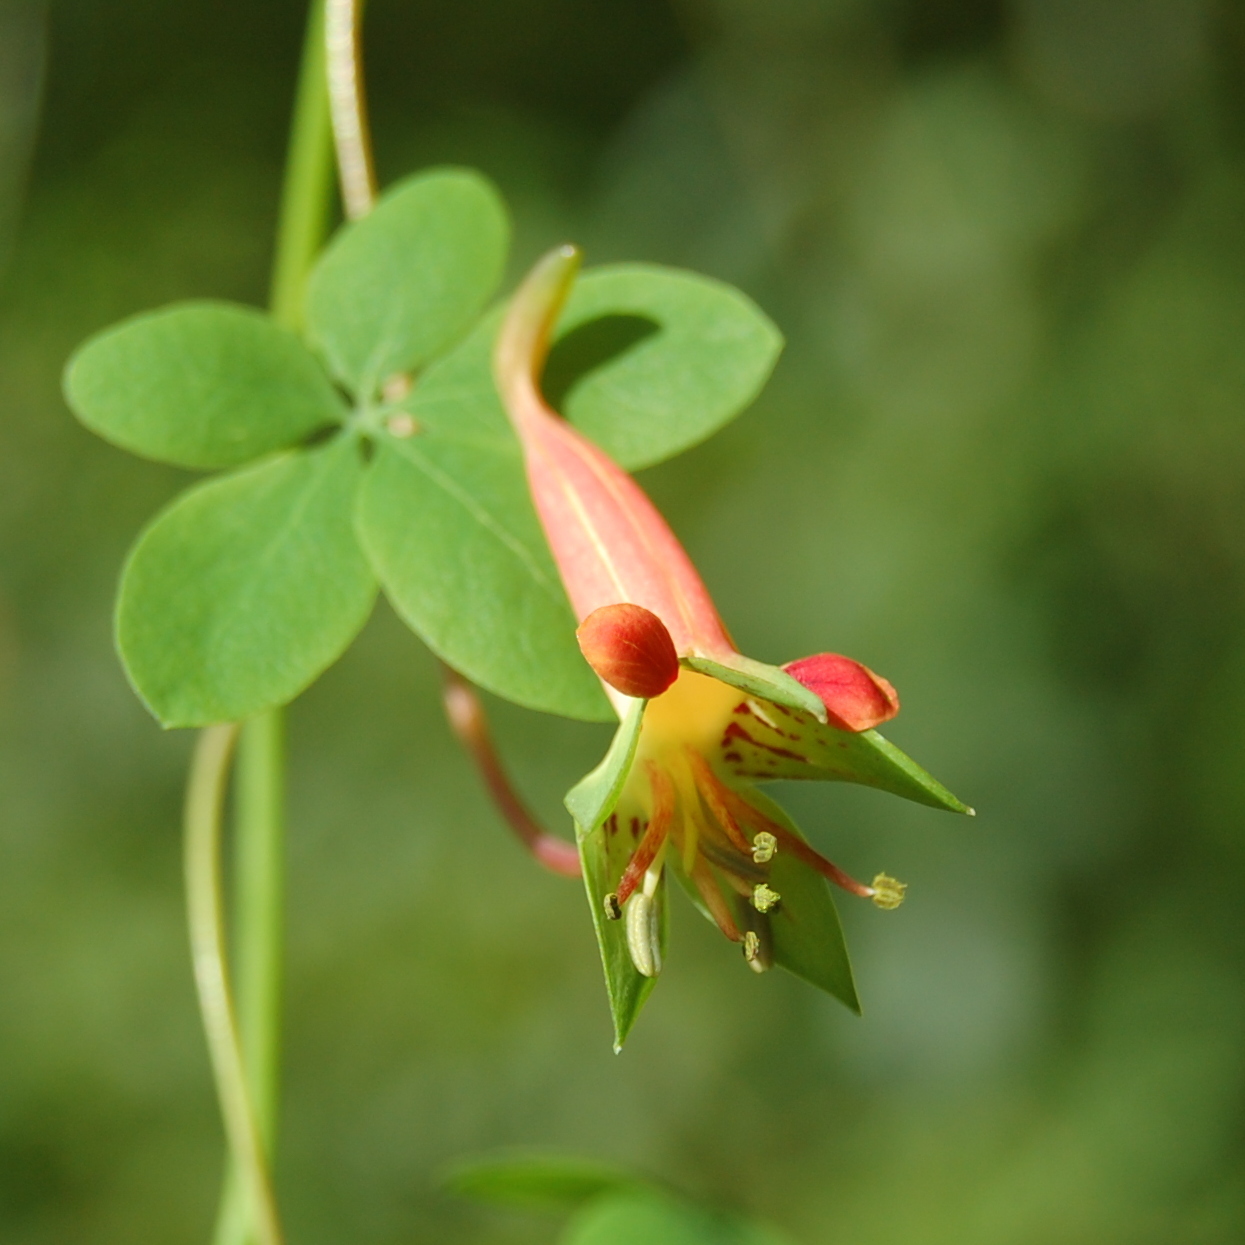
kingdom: Plantae
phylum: Tracheophyta
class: Magnoliopsida
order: Brassicales
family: Tropaeolaceae
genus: Tropaeolum
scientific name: Tropaeolum pentaphyllum
